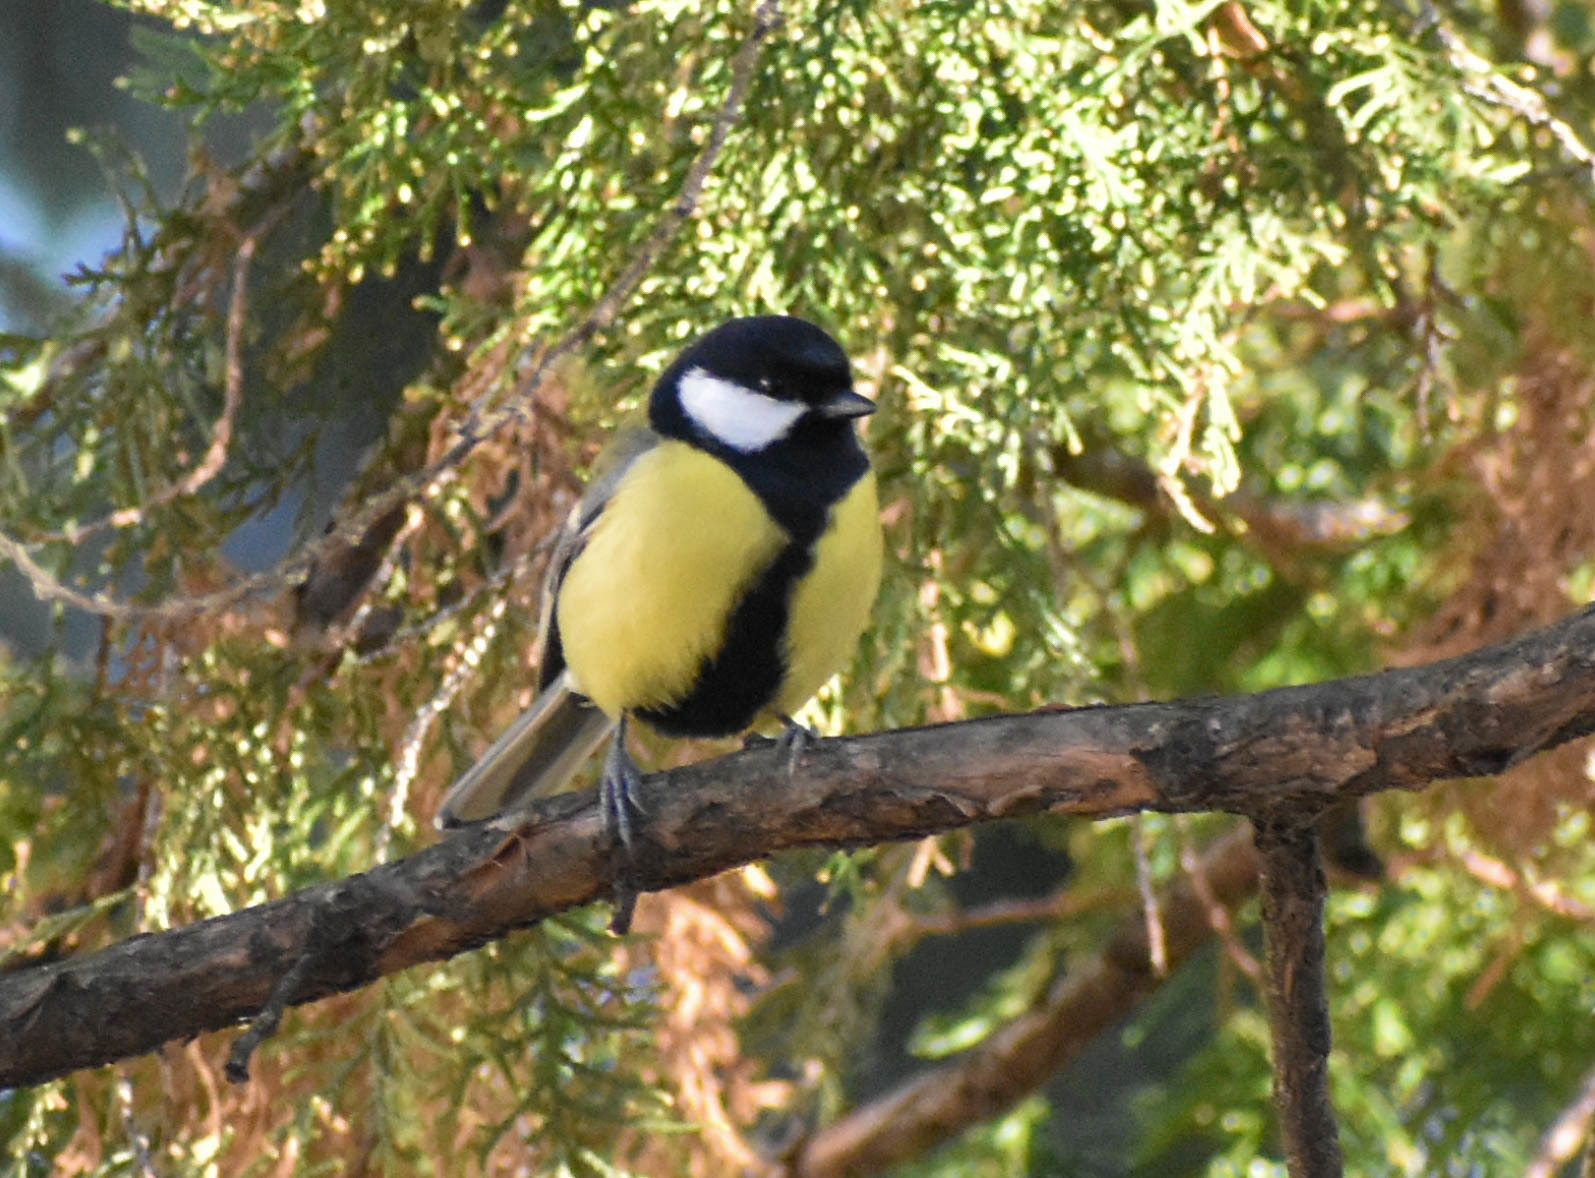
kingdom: Animalia
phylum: Chordata
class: Aves
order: Passeriformes
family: Paridae
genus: Parus
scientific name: Parus major
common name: Great tit
